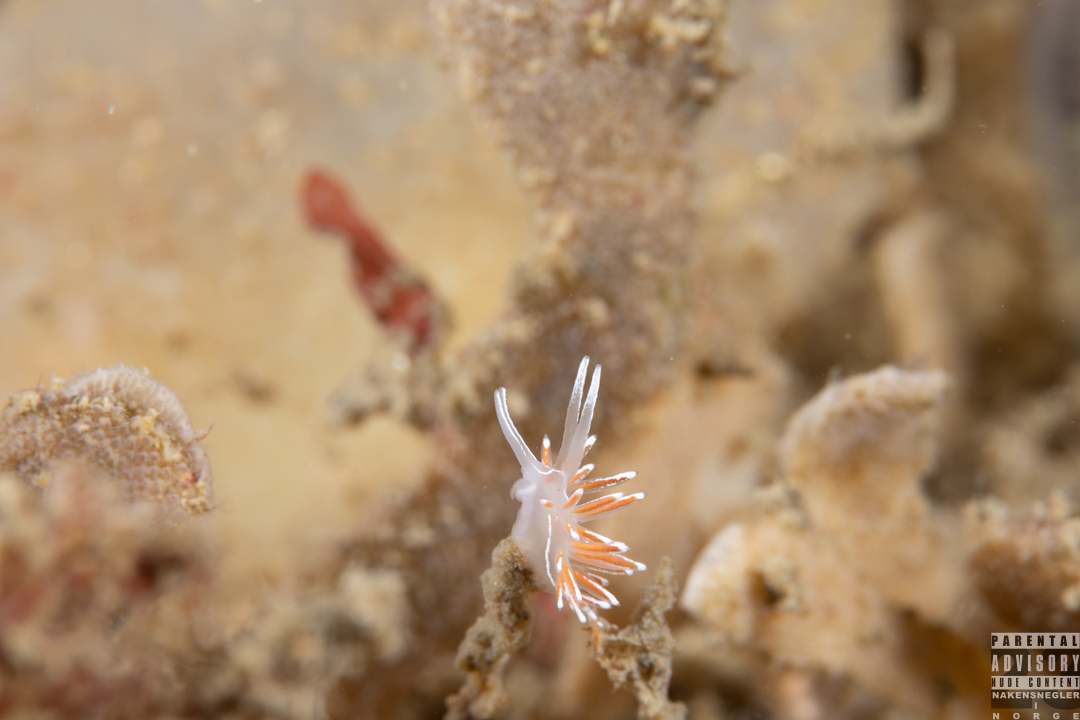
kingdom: Animalia
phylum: Mollusca
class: Gastropoda
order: Nudibranchia
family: Coryphellidae
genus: Coryphella
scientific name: Coryphella lineata
